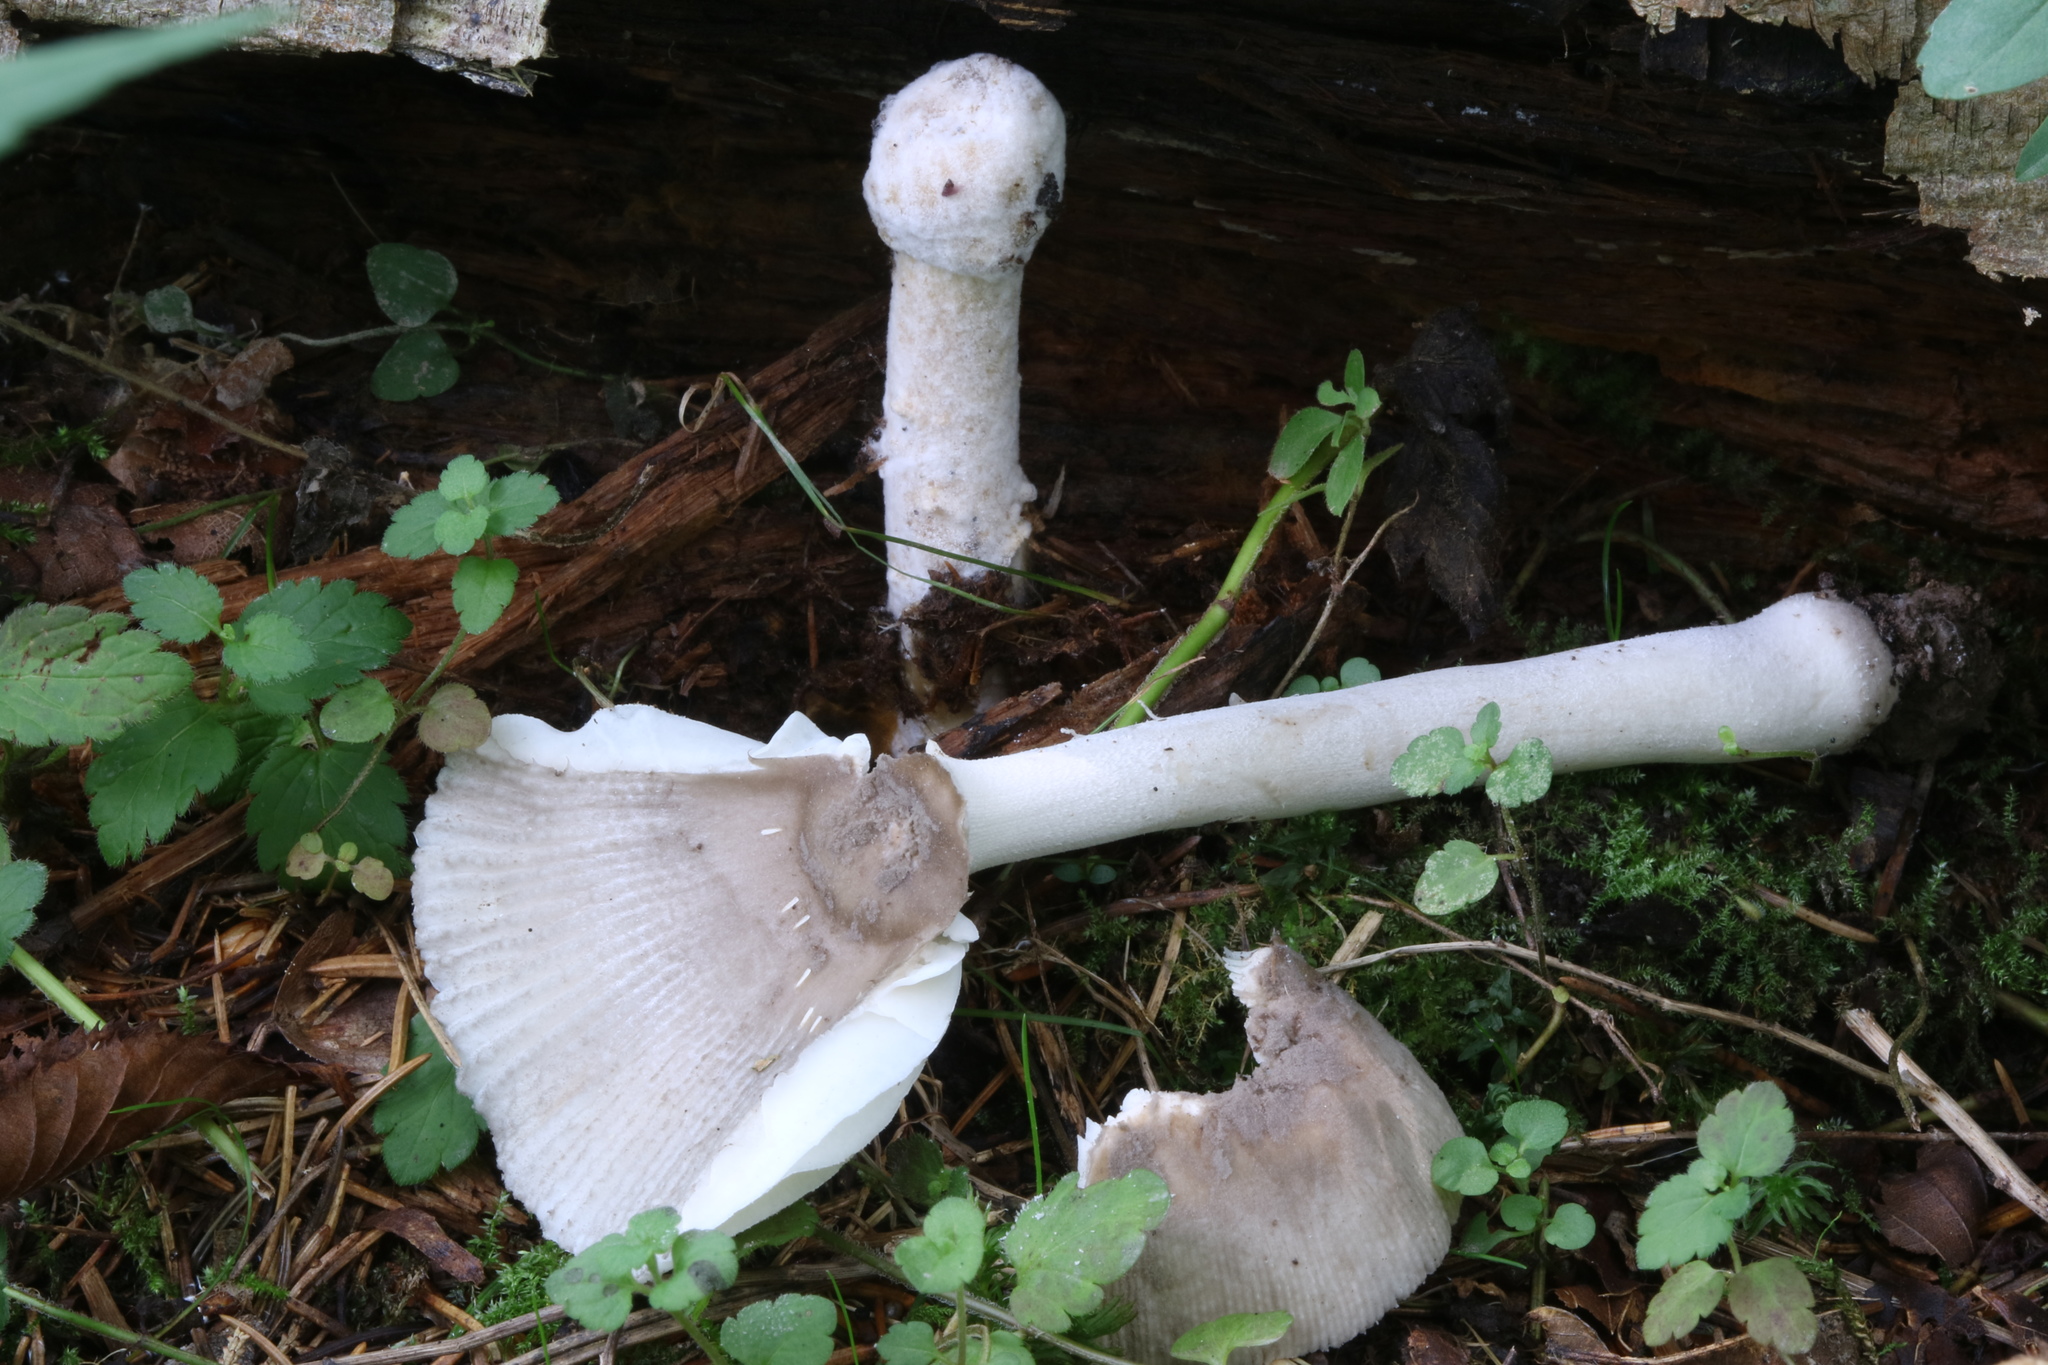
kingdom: Fungi
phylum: Ascomycota
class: Sordariomycetes
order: Hypocreales
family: Hypocreaceae
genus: Hypomyces
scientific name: Hypomyces hyalinus
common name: Amanita mold
